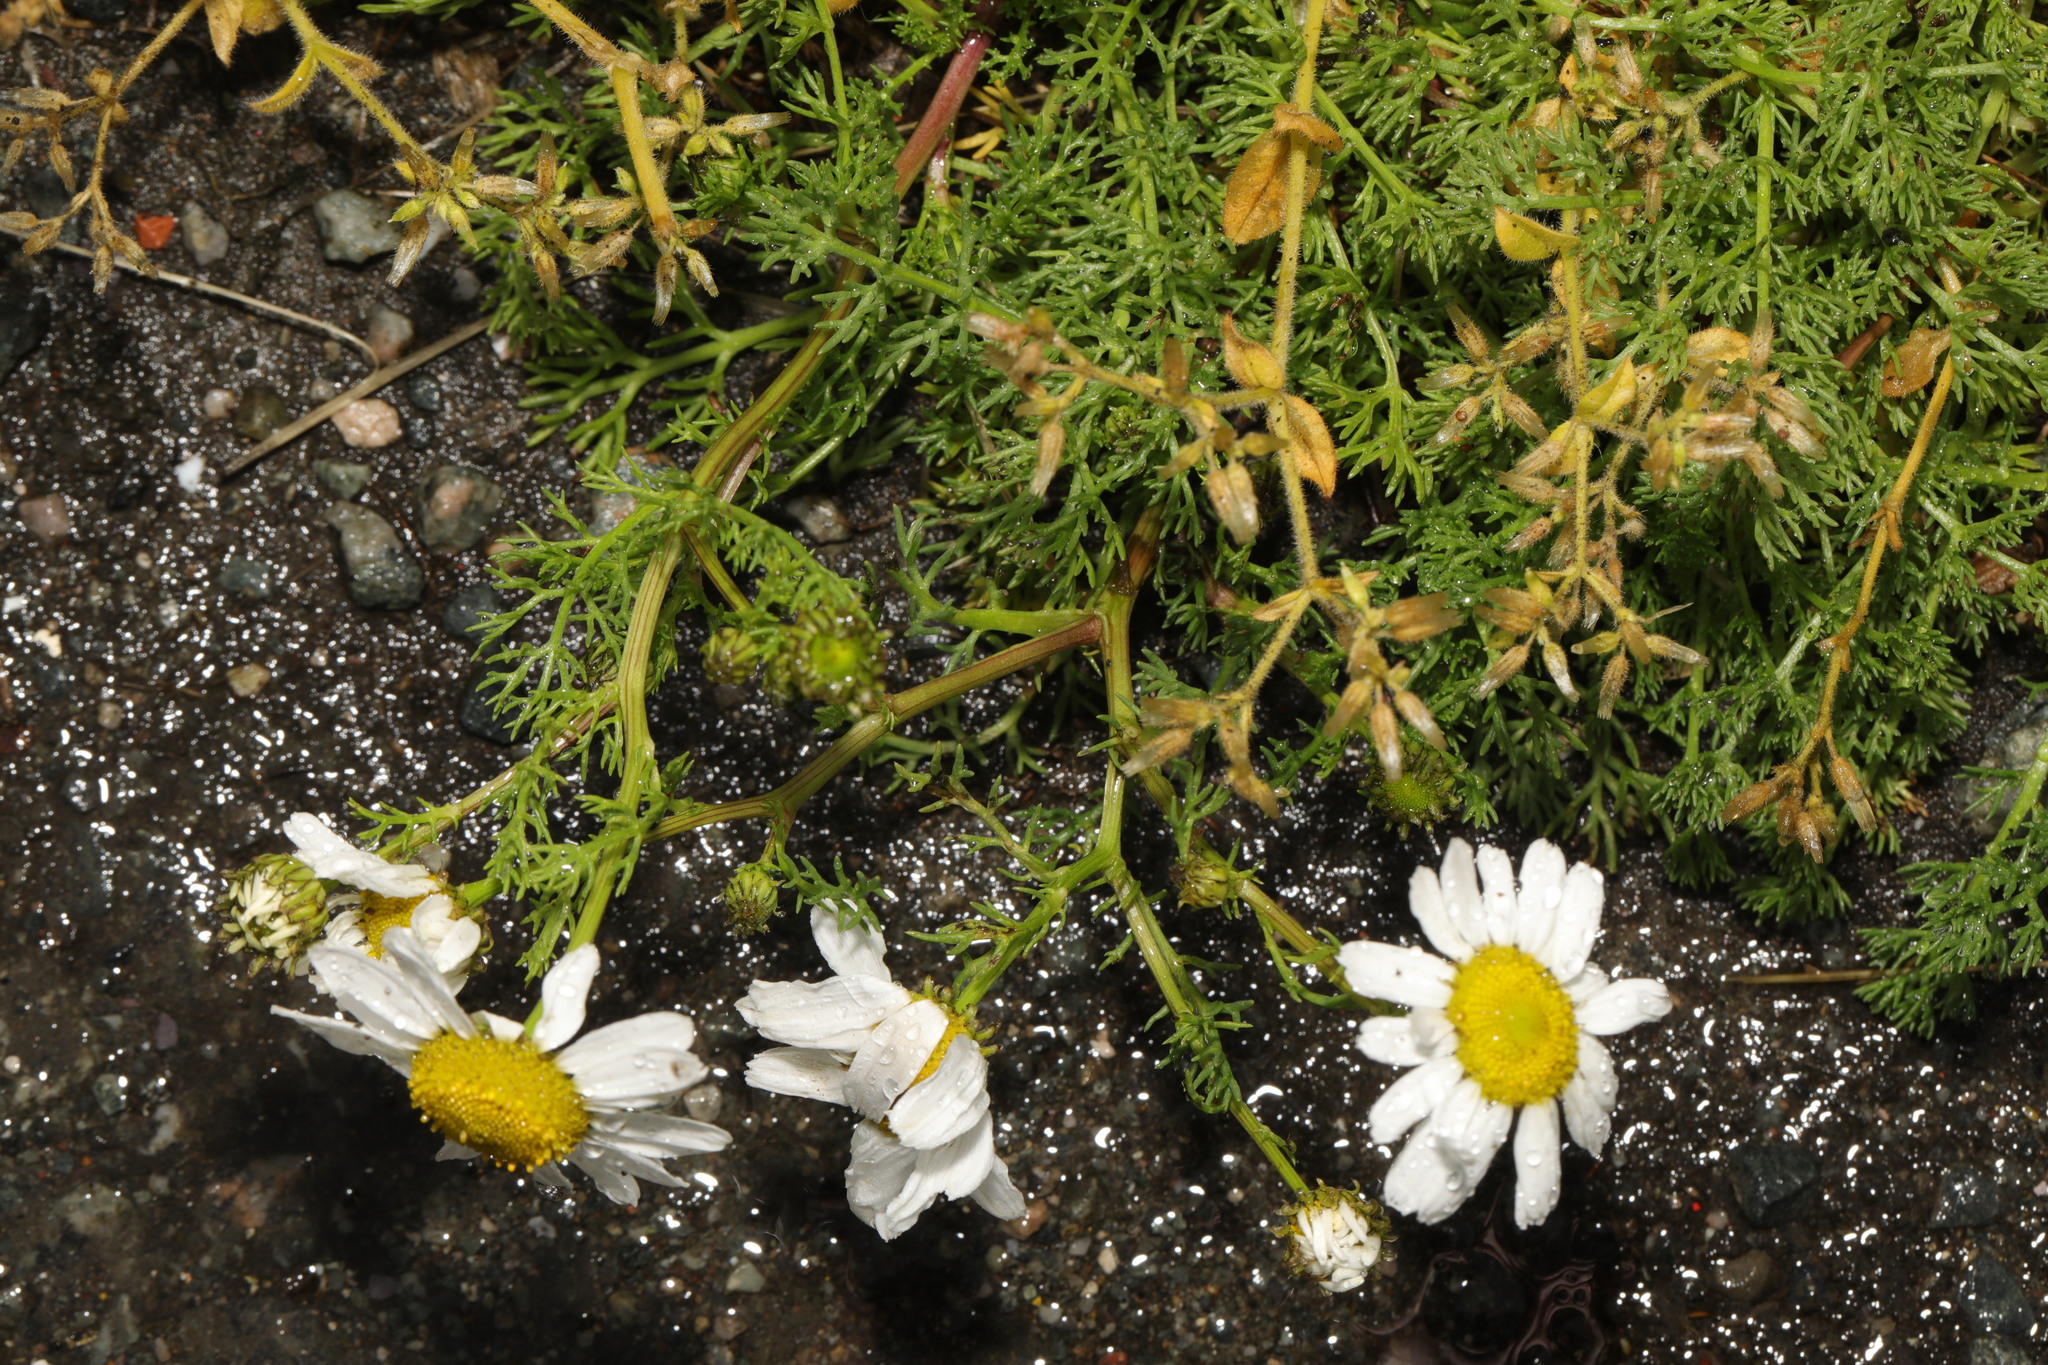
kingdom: Plantae
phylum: Tracheophyta
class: Magnoliopsida
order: Asterales
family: Asteraceae
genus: Tripleurospermum
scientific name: Tripleurospermum maritimum
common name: Sea mayweed
